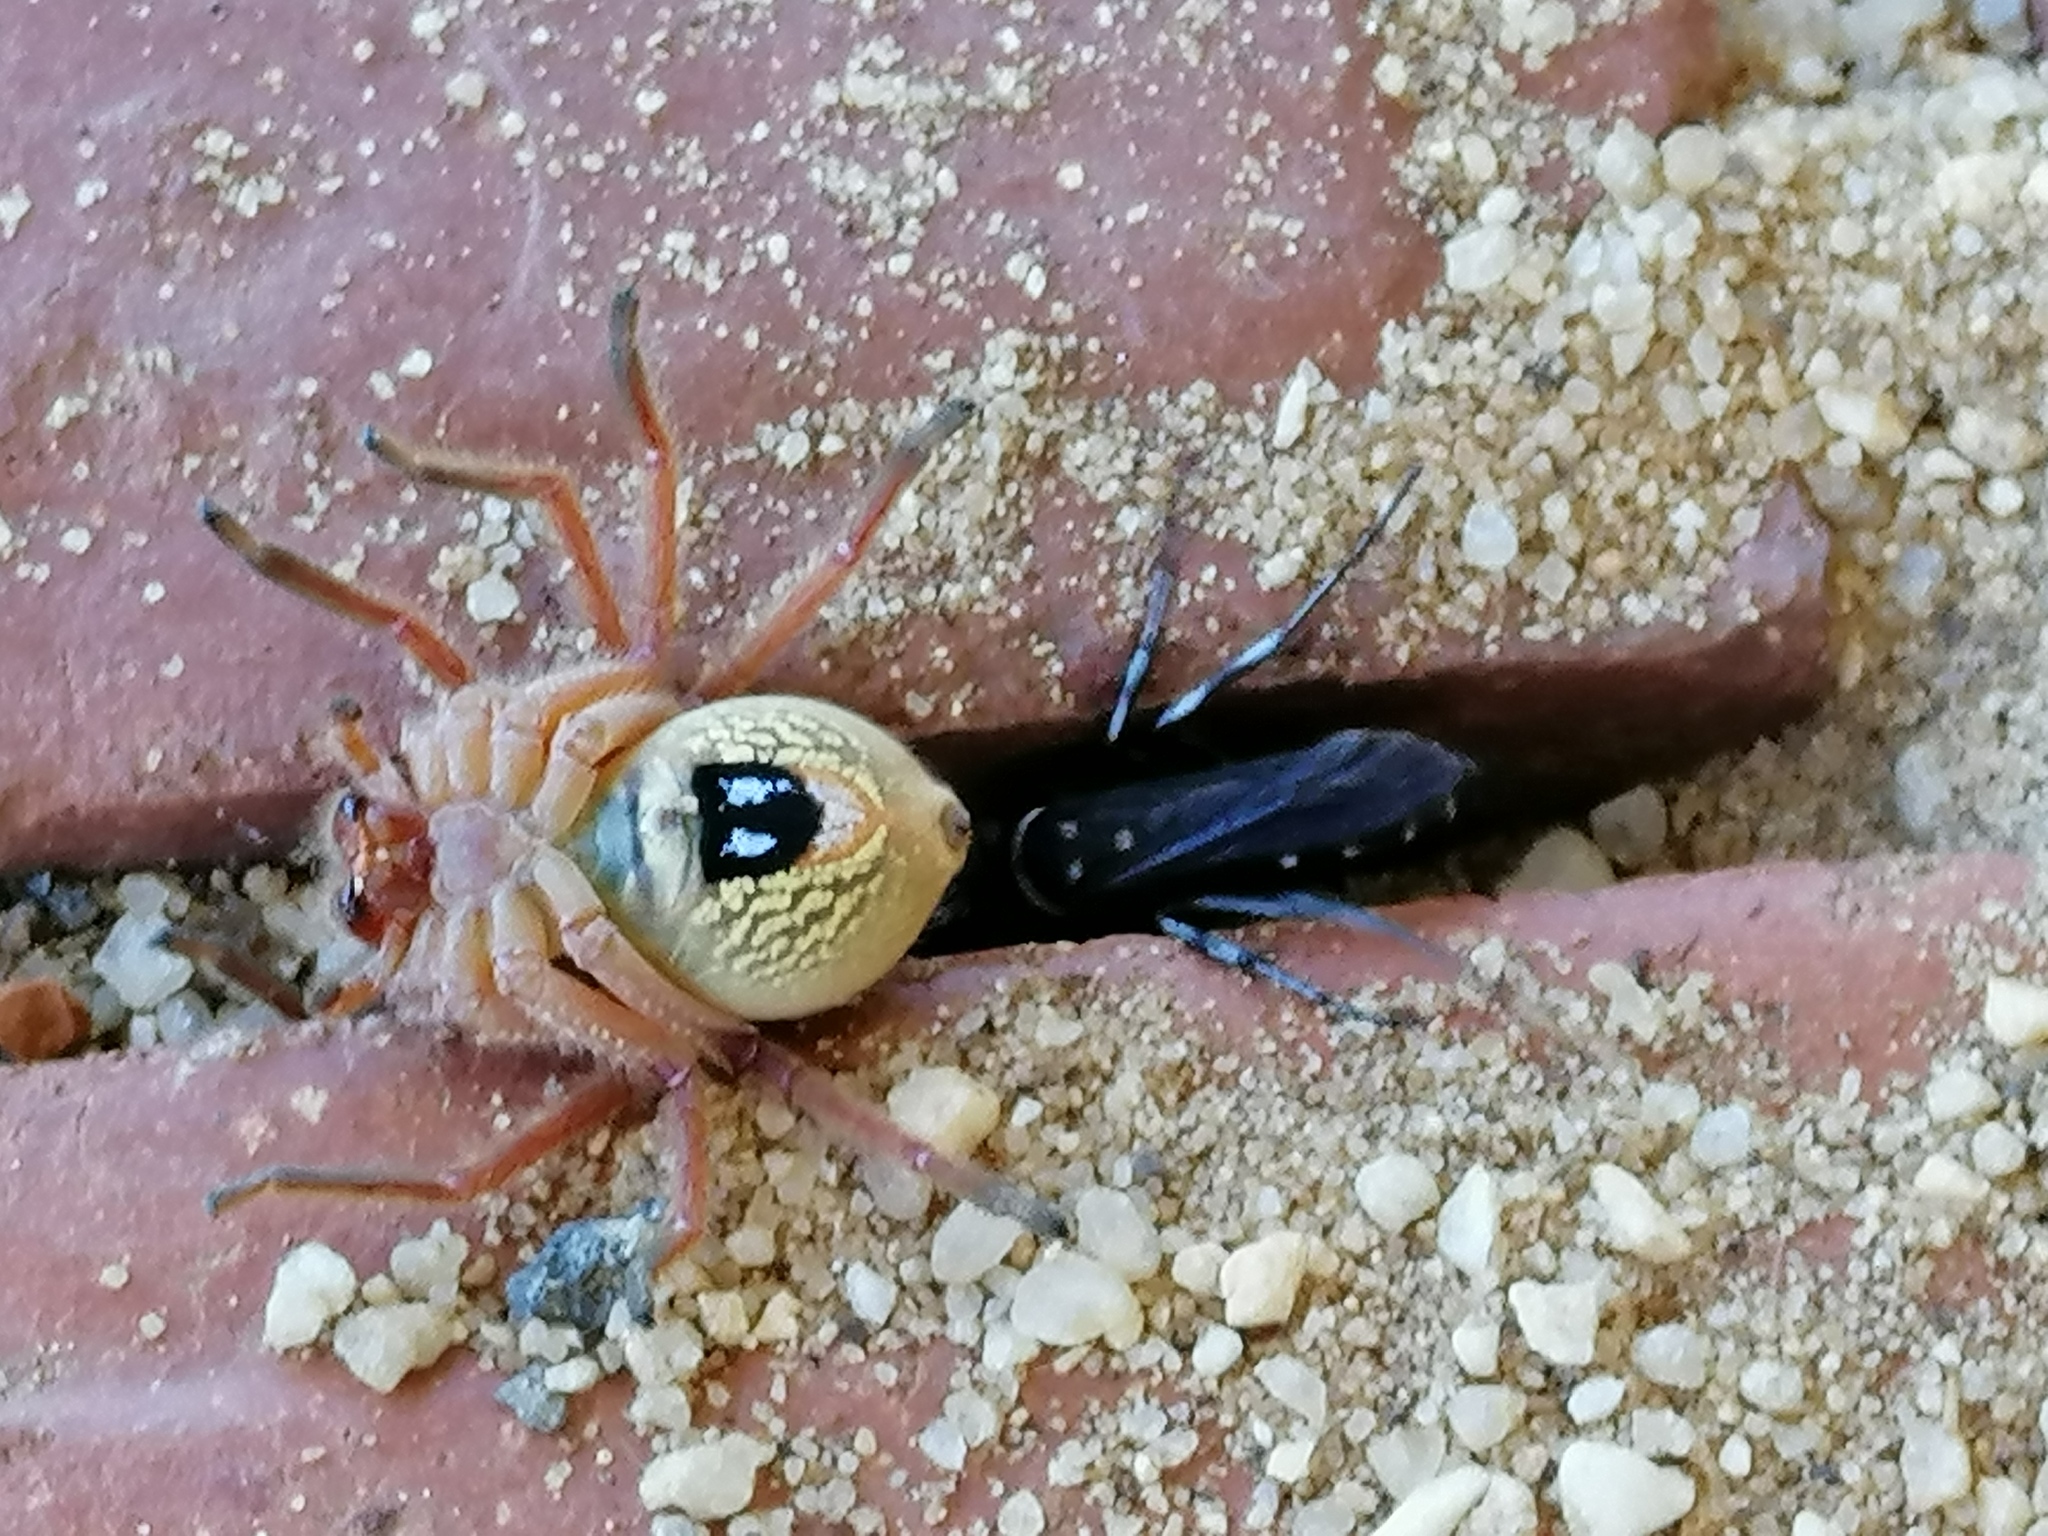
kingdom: Animalia
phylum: Arthropoda
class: Arachnida
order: Araneae
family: Sparassidae
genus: Neosparassus
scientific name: Neosparassus diana
